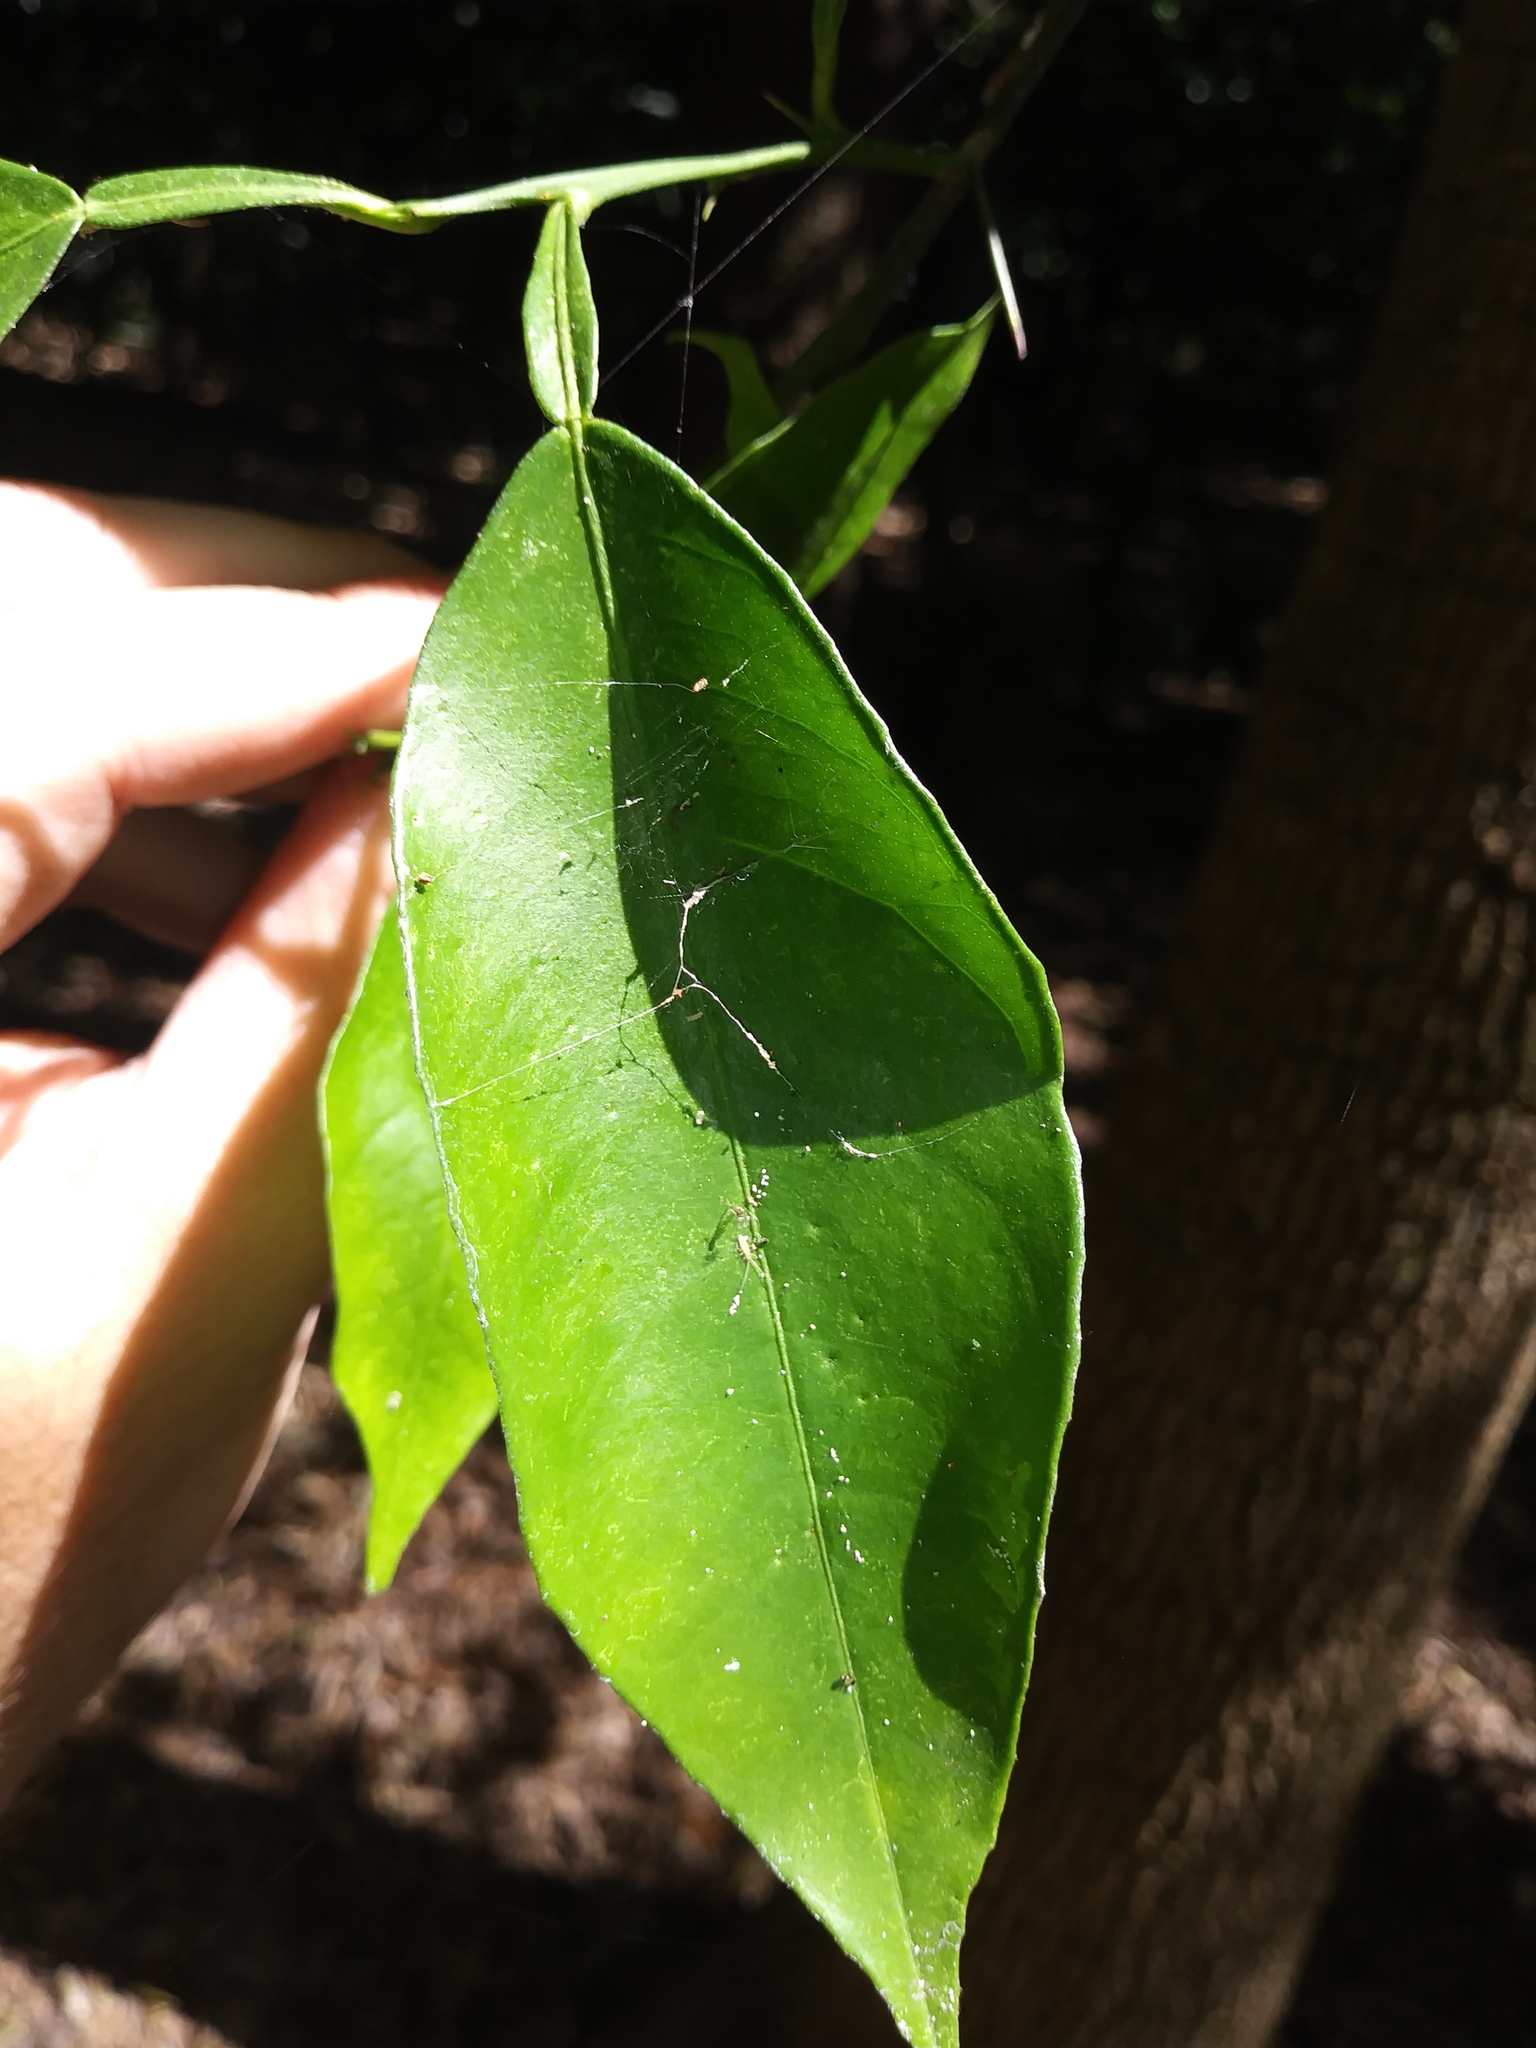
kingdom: Plantae
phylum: Tracheophyta
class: Magnoliopsida
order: Sapindales
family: Rutaceae
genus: Citrus
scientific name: Citrus aurantium
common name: Sour orange
